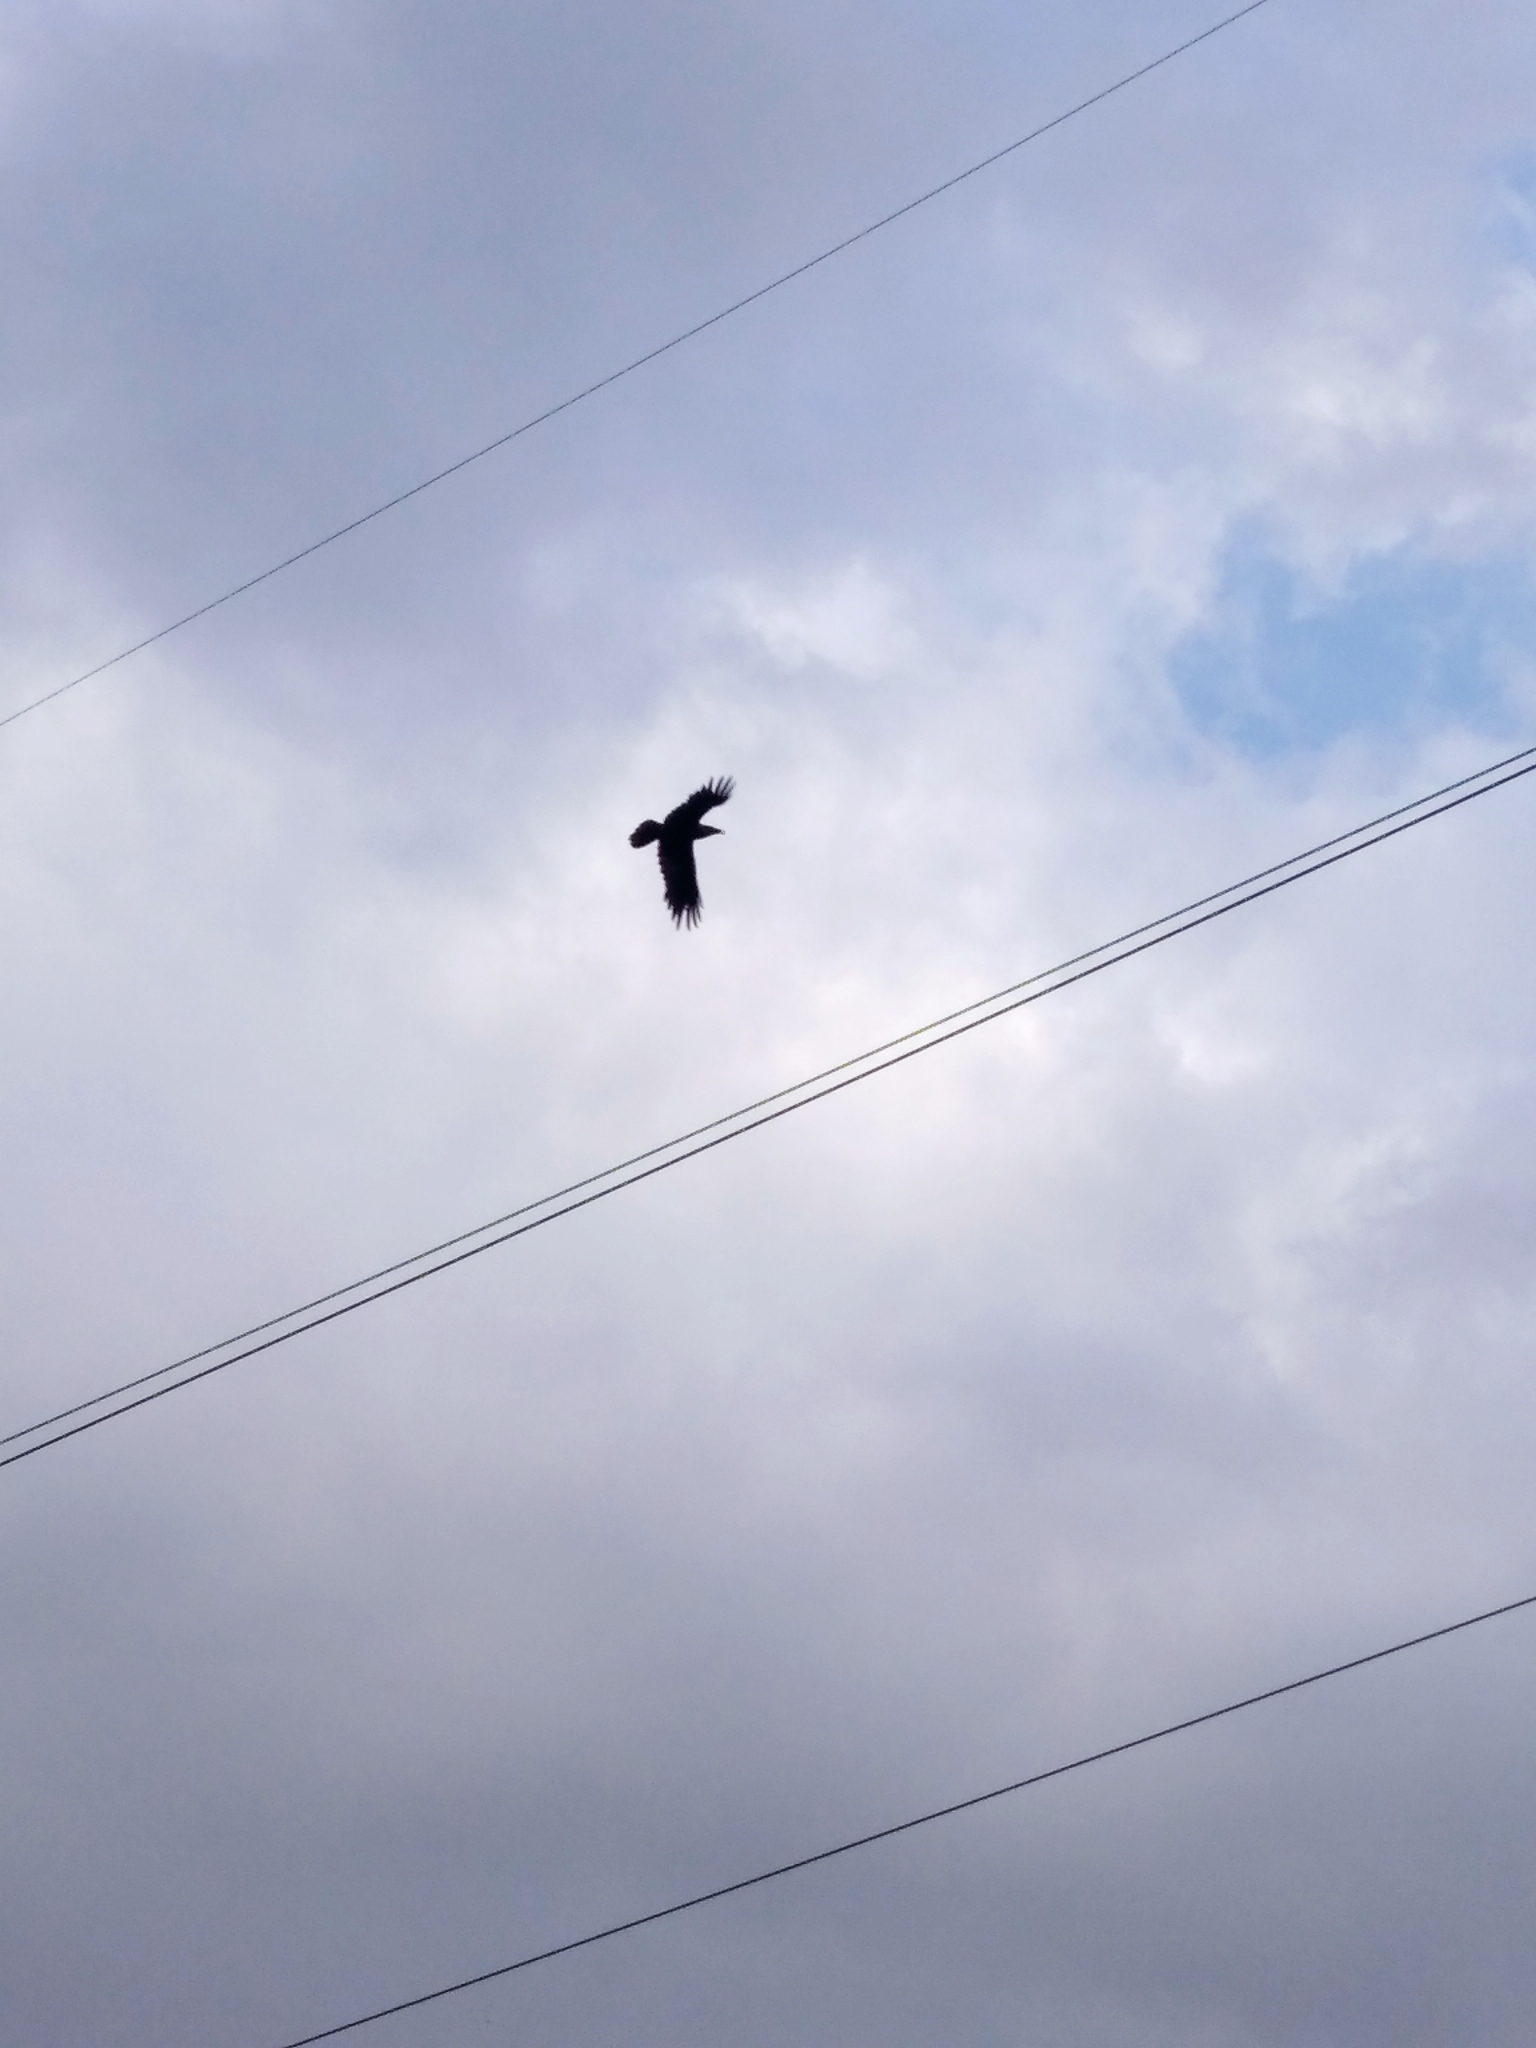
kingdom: Animalia
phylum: Chordata
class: Aves
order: Passeriformes
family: Corvidae
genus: Corvus
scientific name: Corvus corax
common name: Common raven
